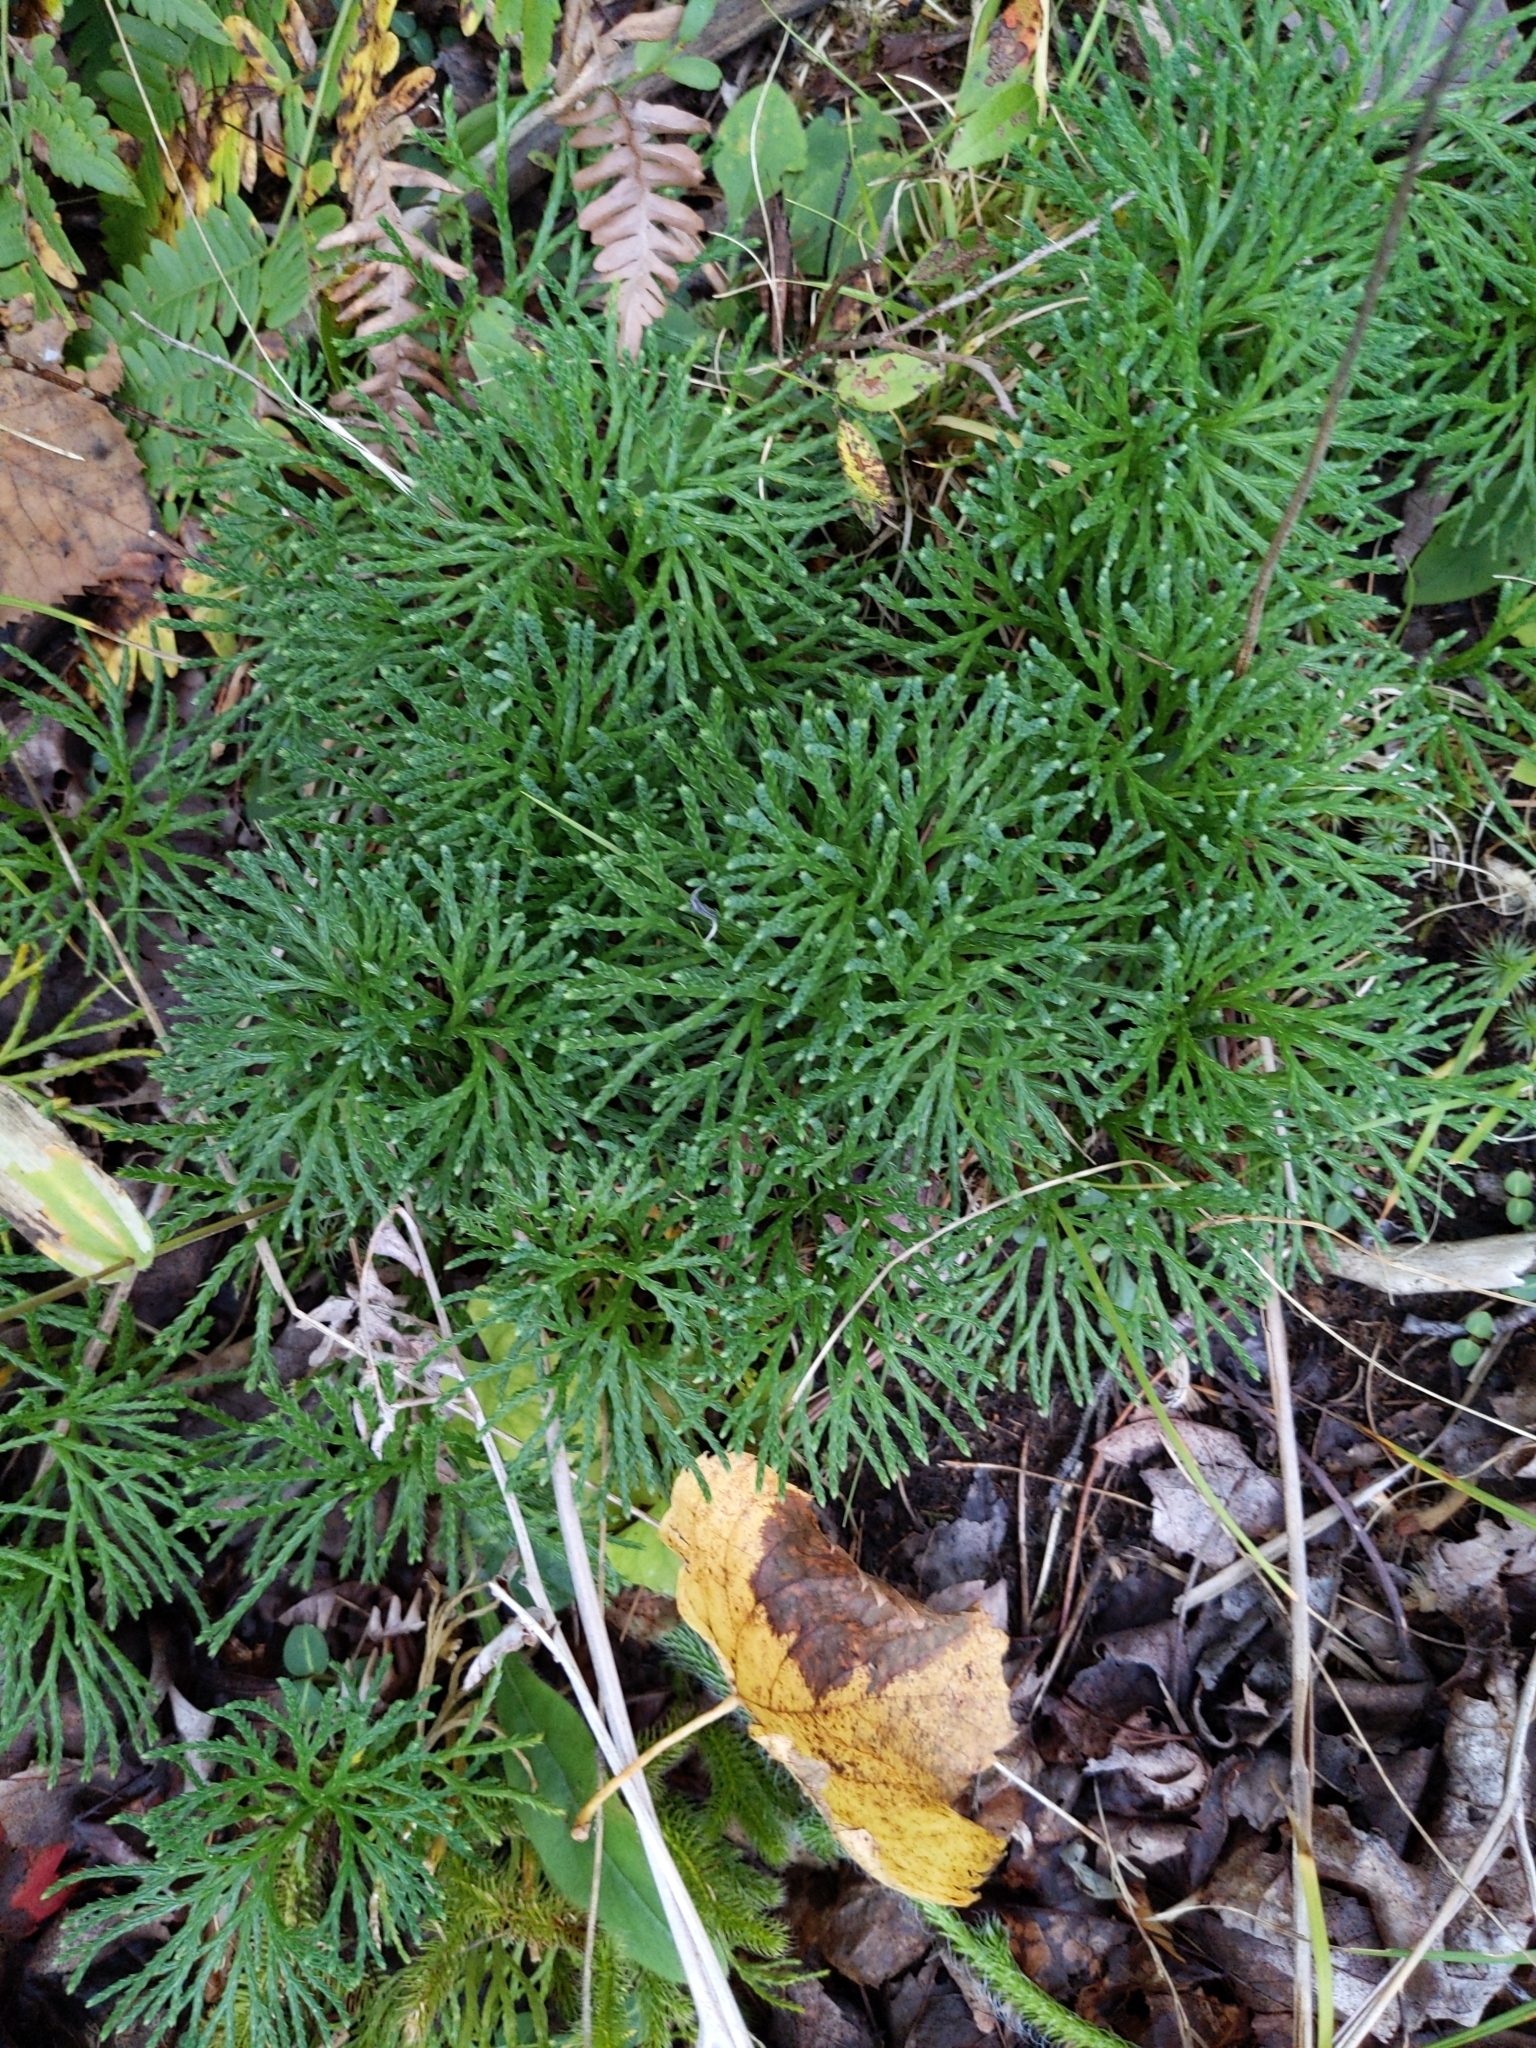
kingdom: Plantae
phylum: Tracheophyta
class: Lycopodiopsida
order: Lycopodiales
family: Lycopodiaceae
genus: Diphasiastrum
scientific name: Diphasiastrum digitatum
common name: Southern running-pine
